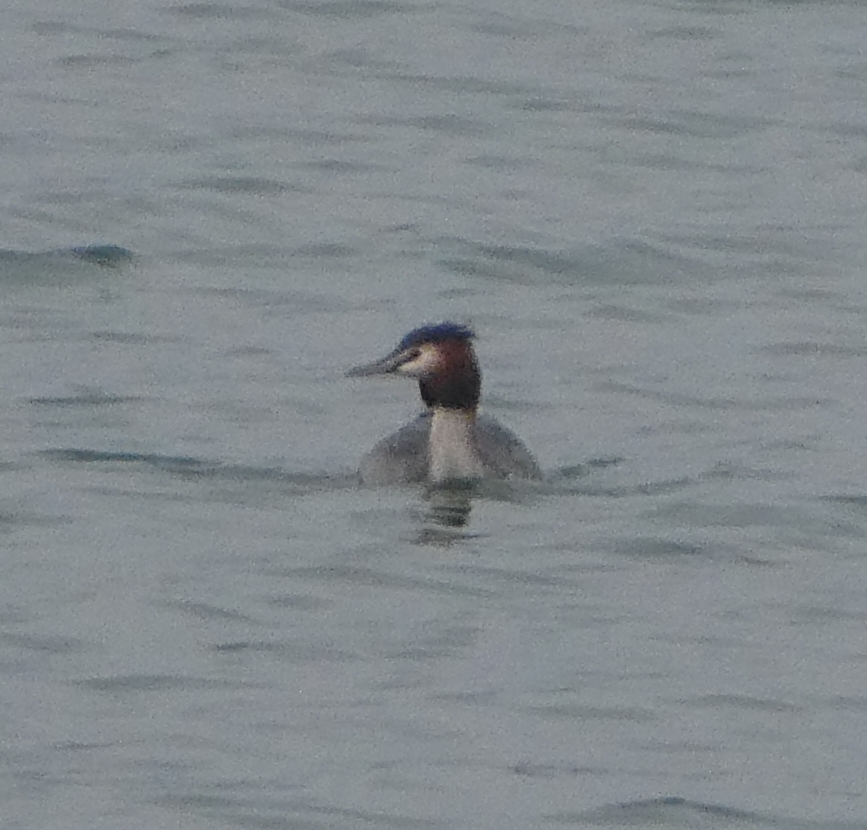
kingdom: Animalia
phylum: Chordata
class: Aves
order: Podicipediformes
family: Podicipedidae
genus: Podiceps
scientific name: Podiceps cristatus
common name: Great crested grebe
